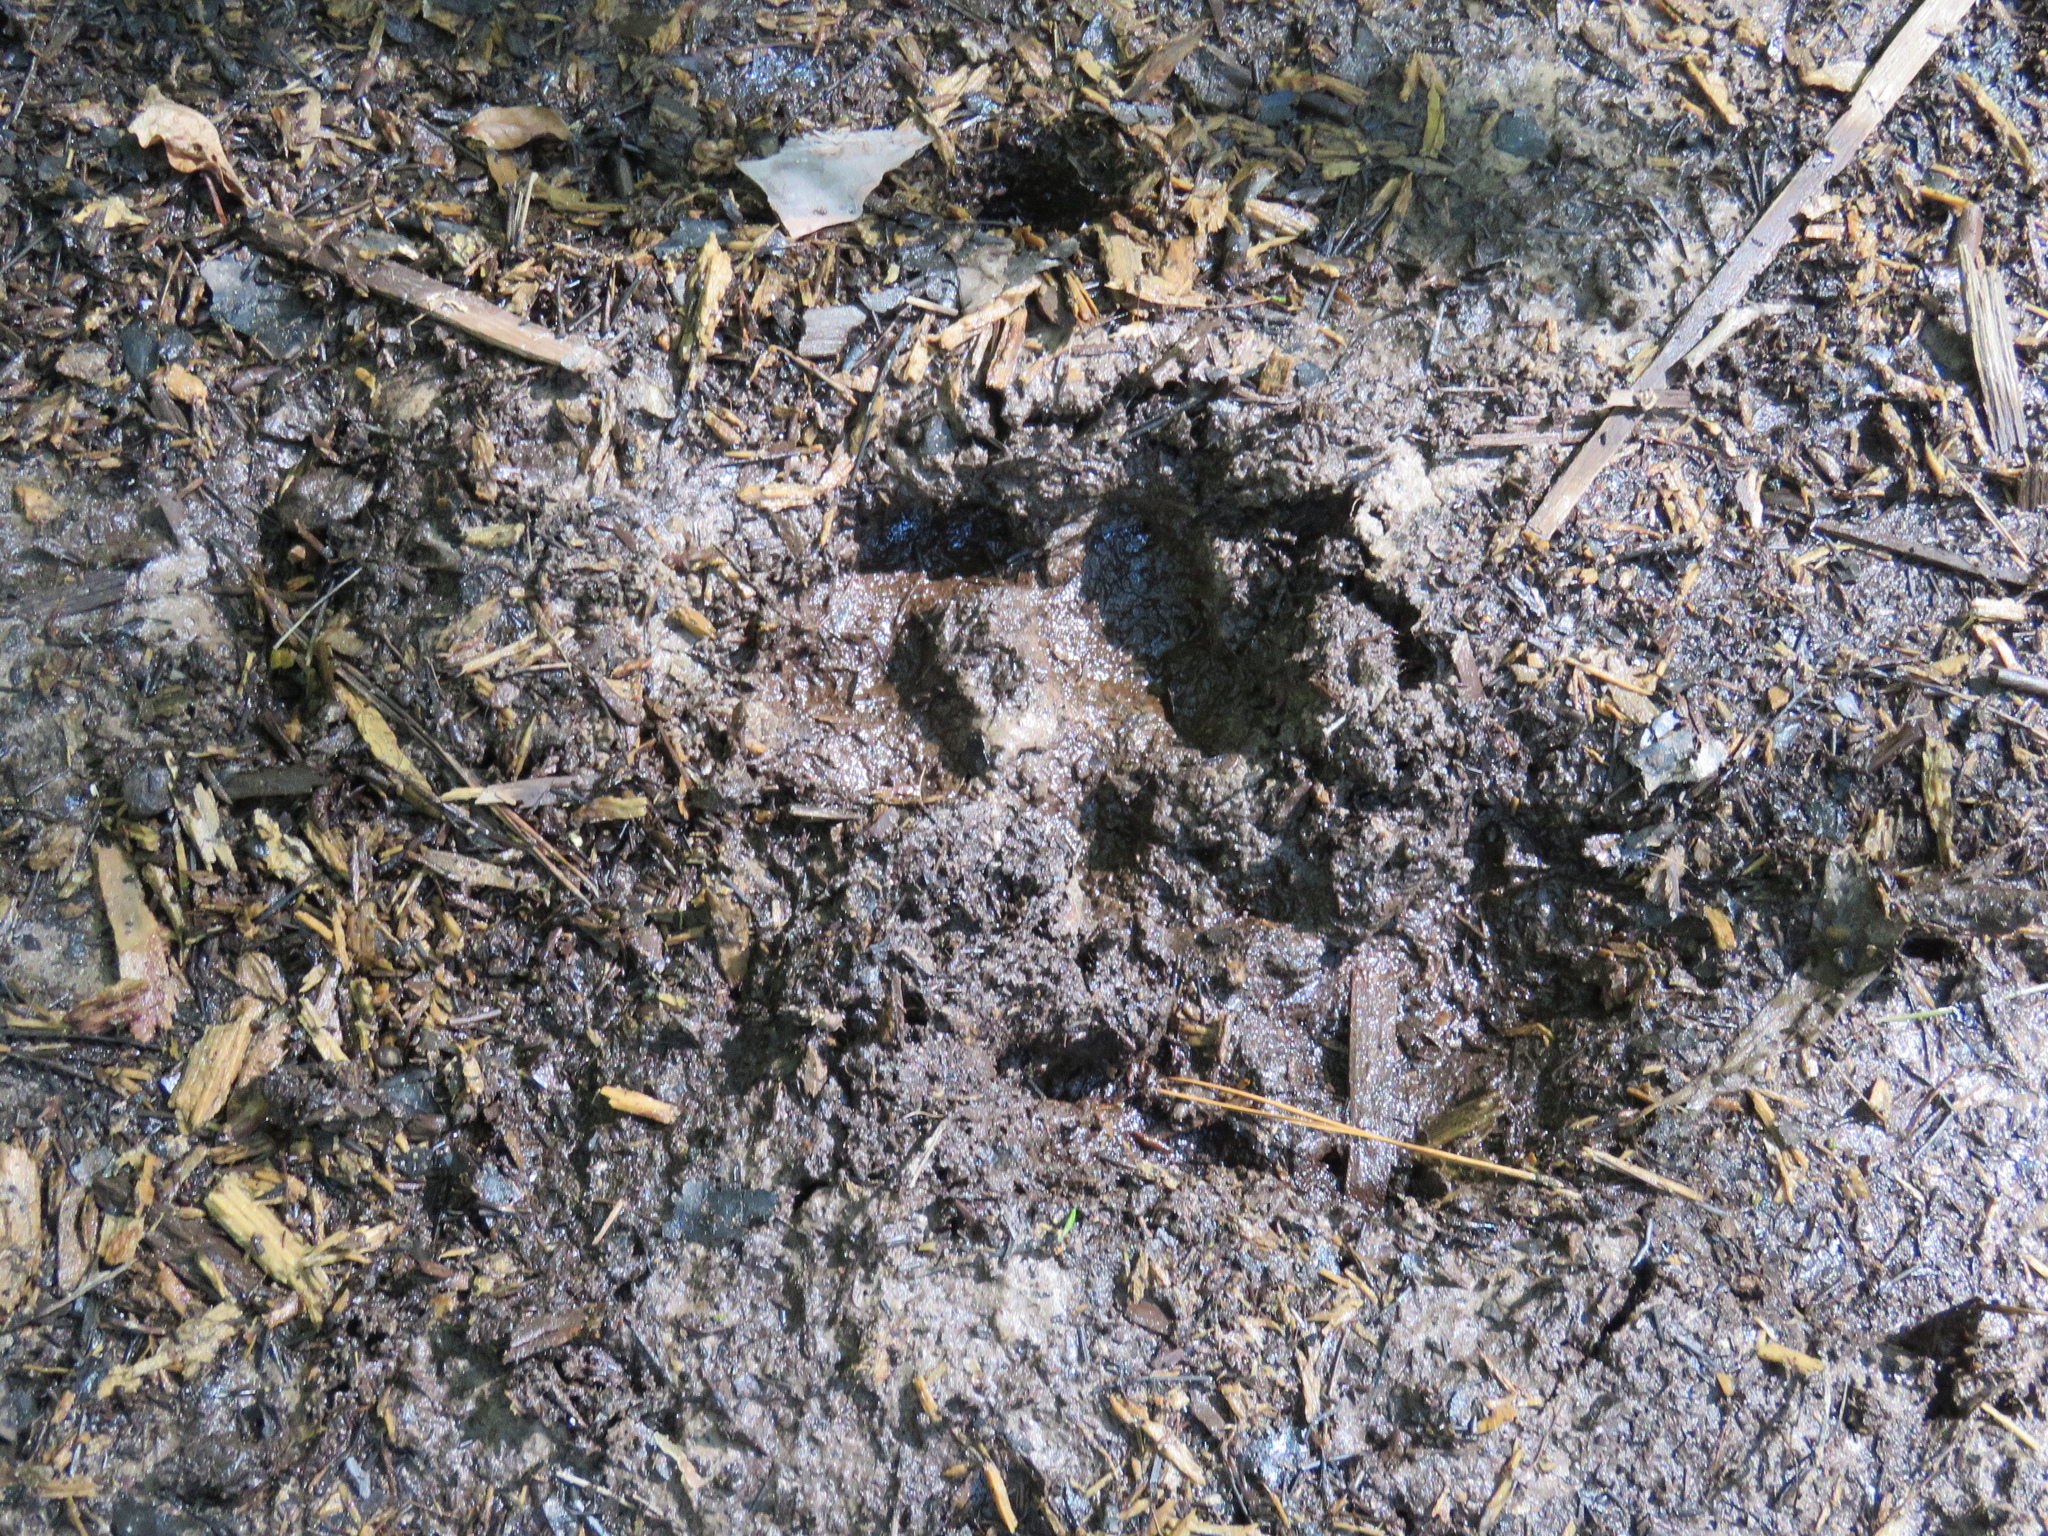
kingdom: Animalia
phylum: Chordata
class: Mammalia
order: Artiodactyla
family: Suidae
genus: Sus
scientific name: Sus scrofa
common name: Wild boar
